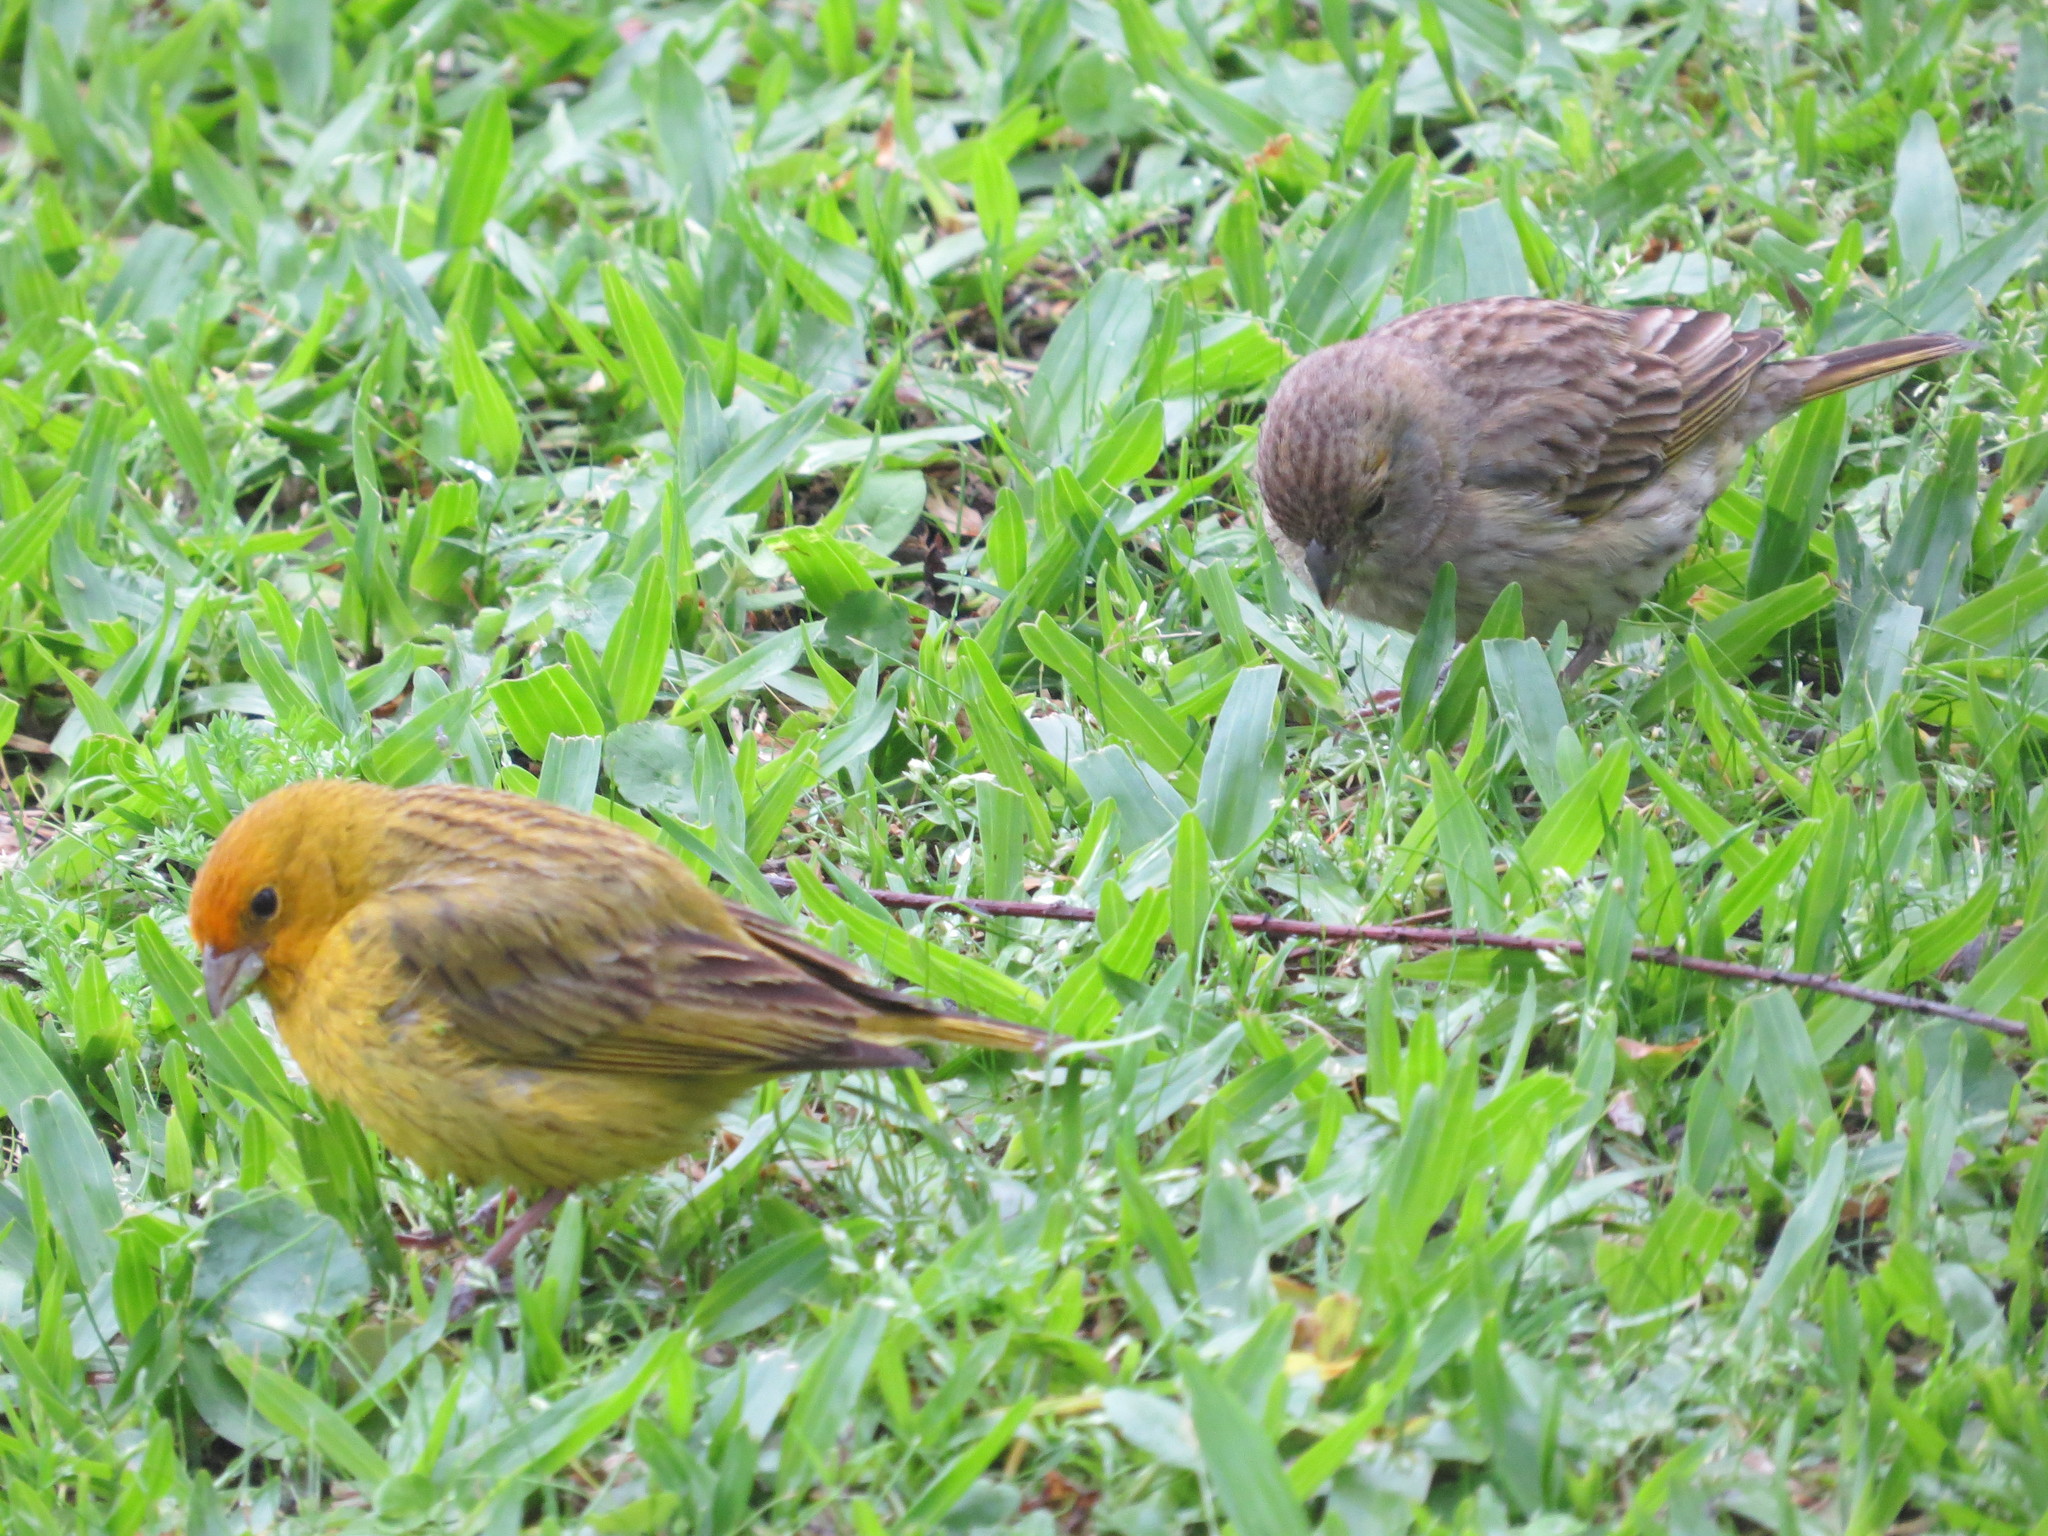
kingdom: Animalia
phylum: Chordata
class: Aves
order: Passeriformes
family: Thraupidae
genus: Sicalis
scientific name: Sicalis flaveola
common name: Saffron finch
